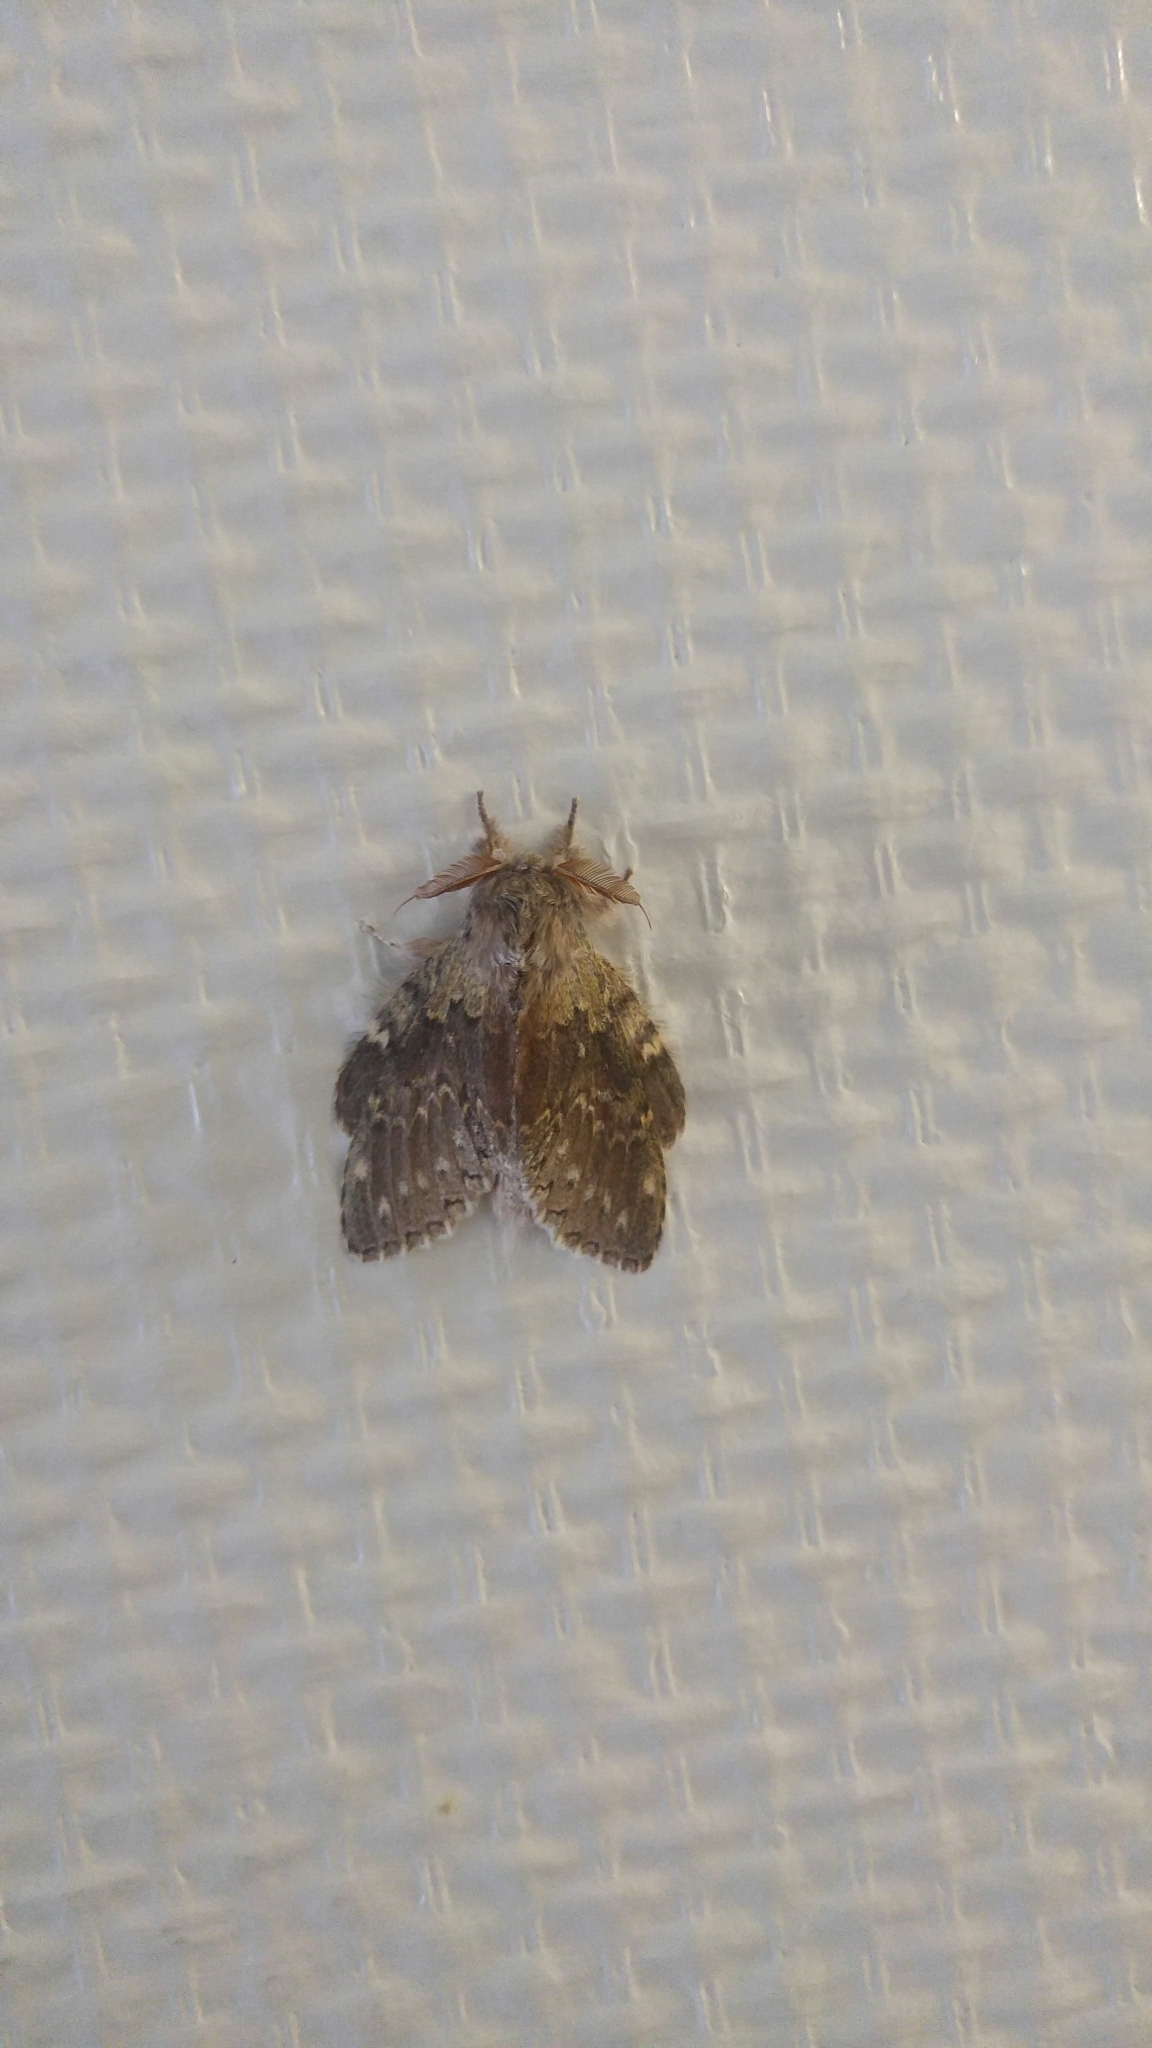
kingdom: Animalia
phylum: Arthropoda
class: Insecta
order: Lepidoptera
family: Notodontidae
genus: Stauropus
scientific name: Stauropus fagi
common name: Lobster moth
